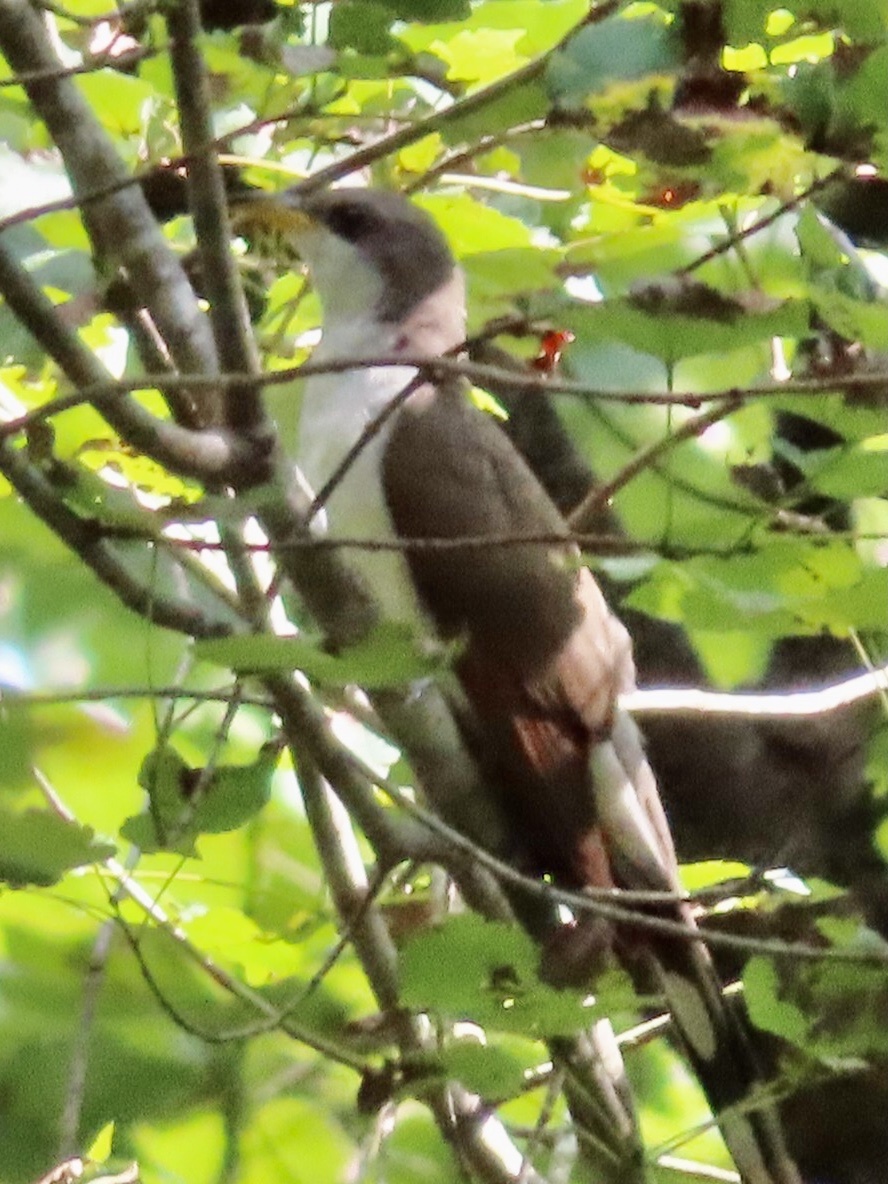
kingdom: Animalia
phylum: Chordata
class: Aves
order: Cuculiformes
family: Cuculidae
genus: Coccyzus
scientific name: Coccyzus americanus
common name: Yellow-billed cuckoo
